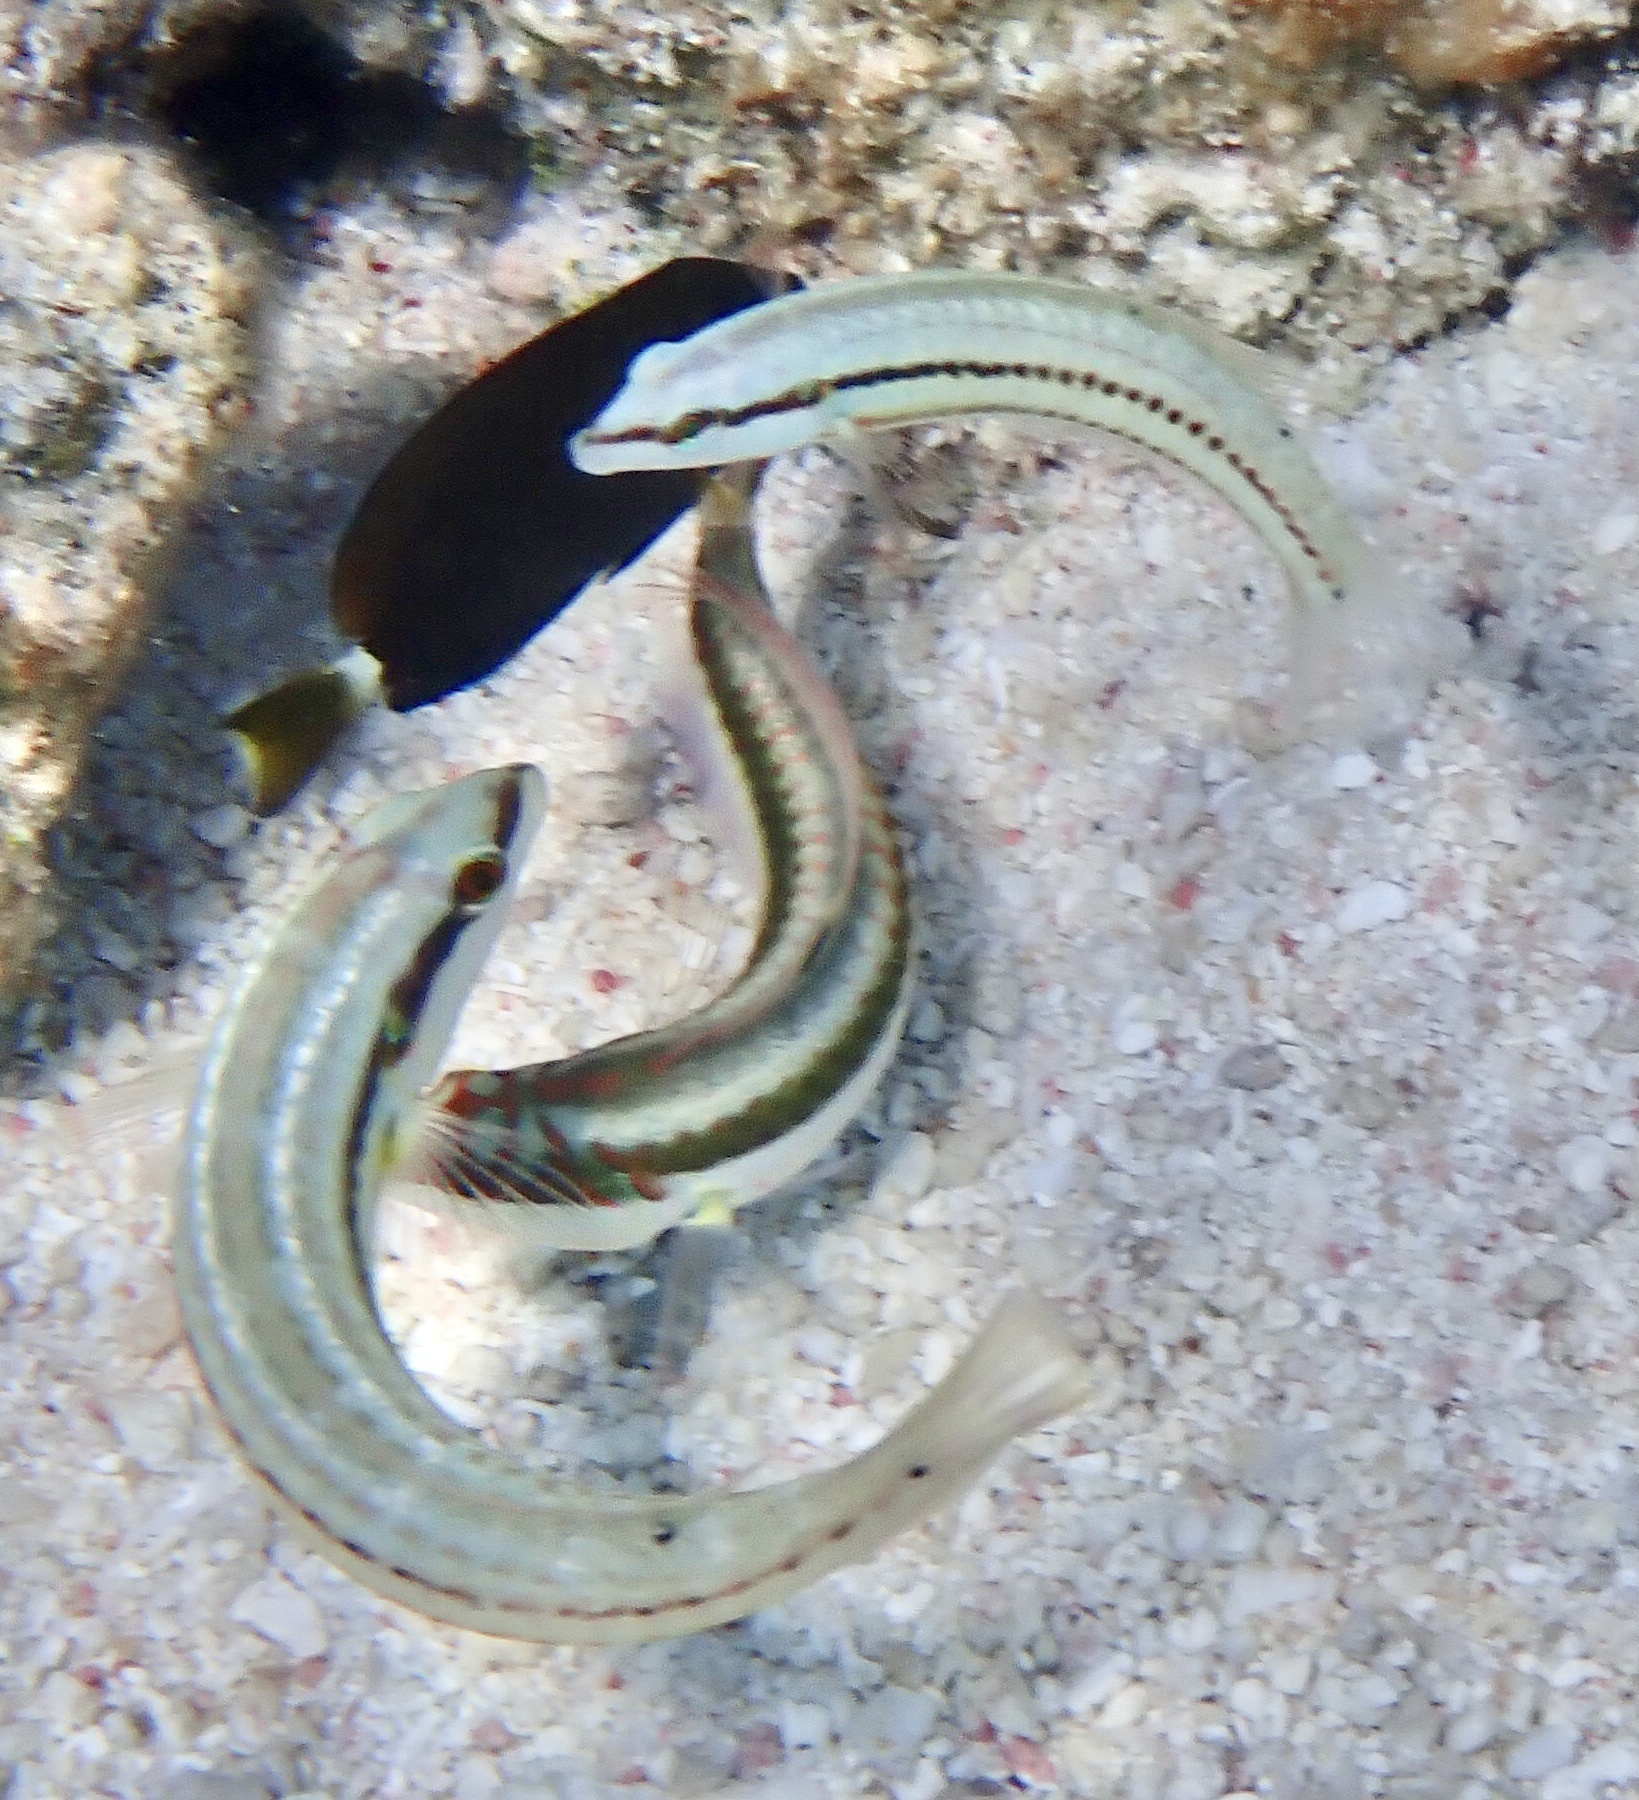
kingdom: Animalia
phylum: Chordata
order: Perciformes
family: Labridae
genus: Halichoeres
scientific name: Halichoeres bivittatus
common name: Slippery dick
